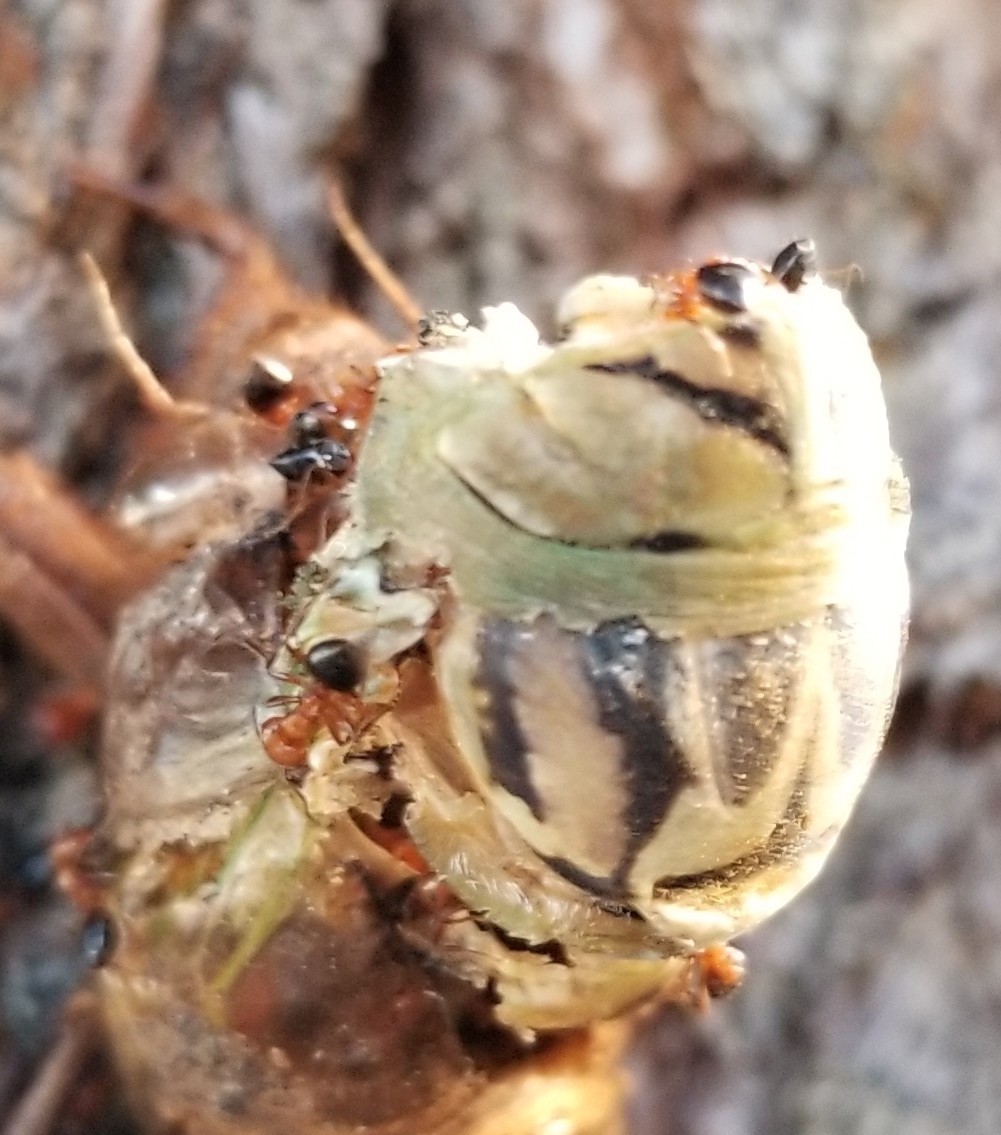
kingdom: Animalia
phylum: Arthropoda
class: Insecta
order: Hymenoptera
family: Formicidae
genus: Crematogaster
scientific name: Crematogaster laeviuscula
